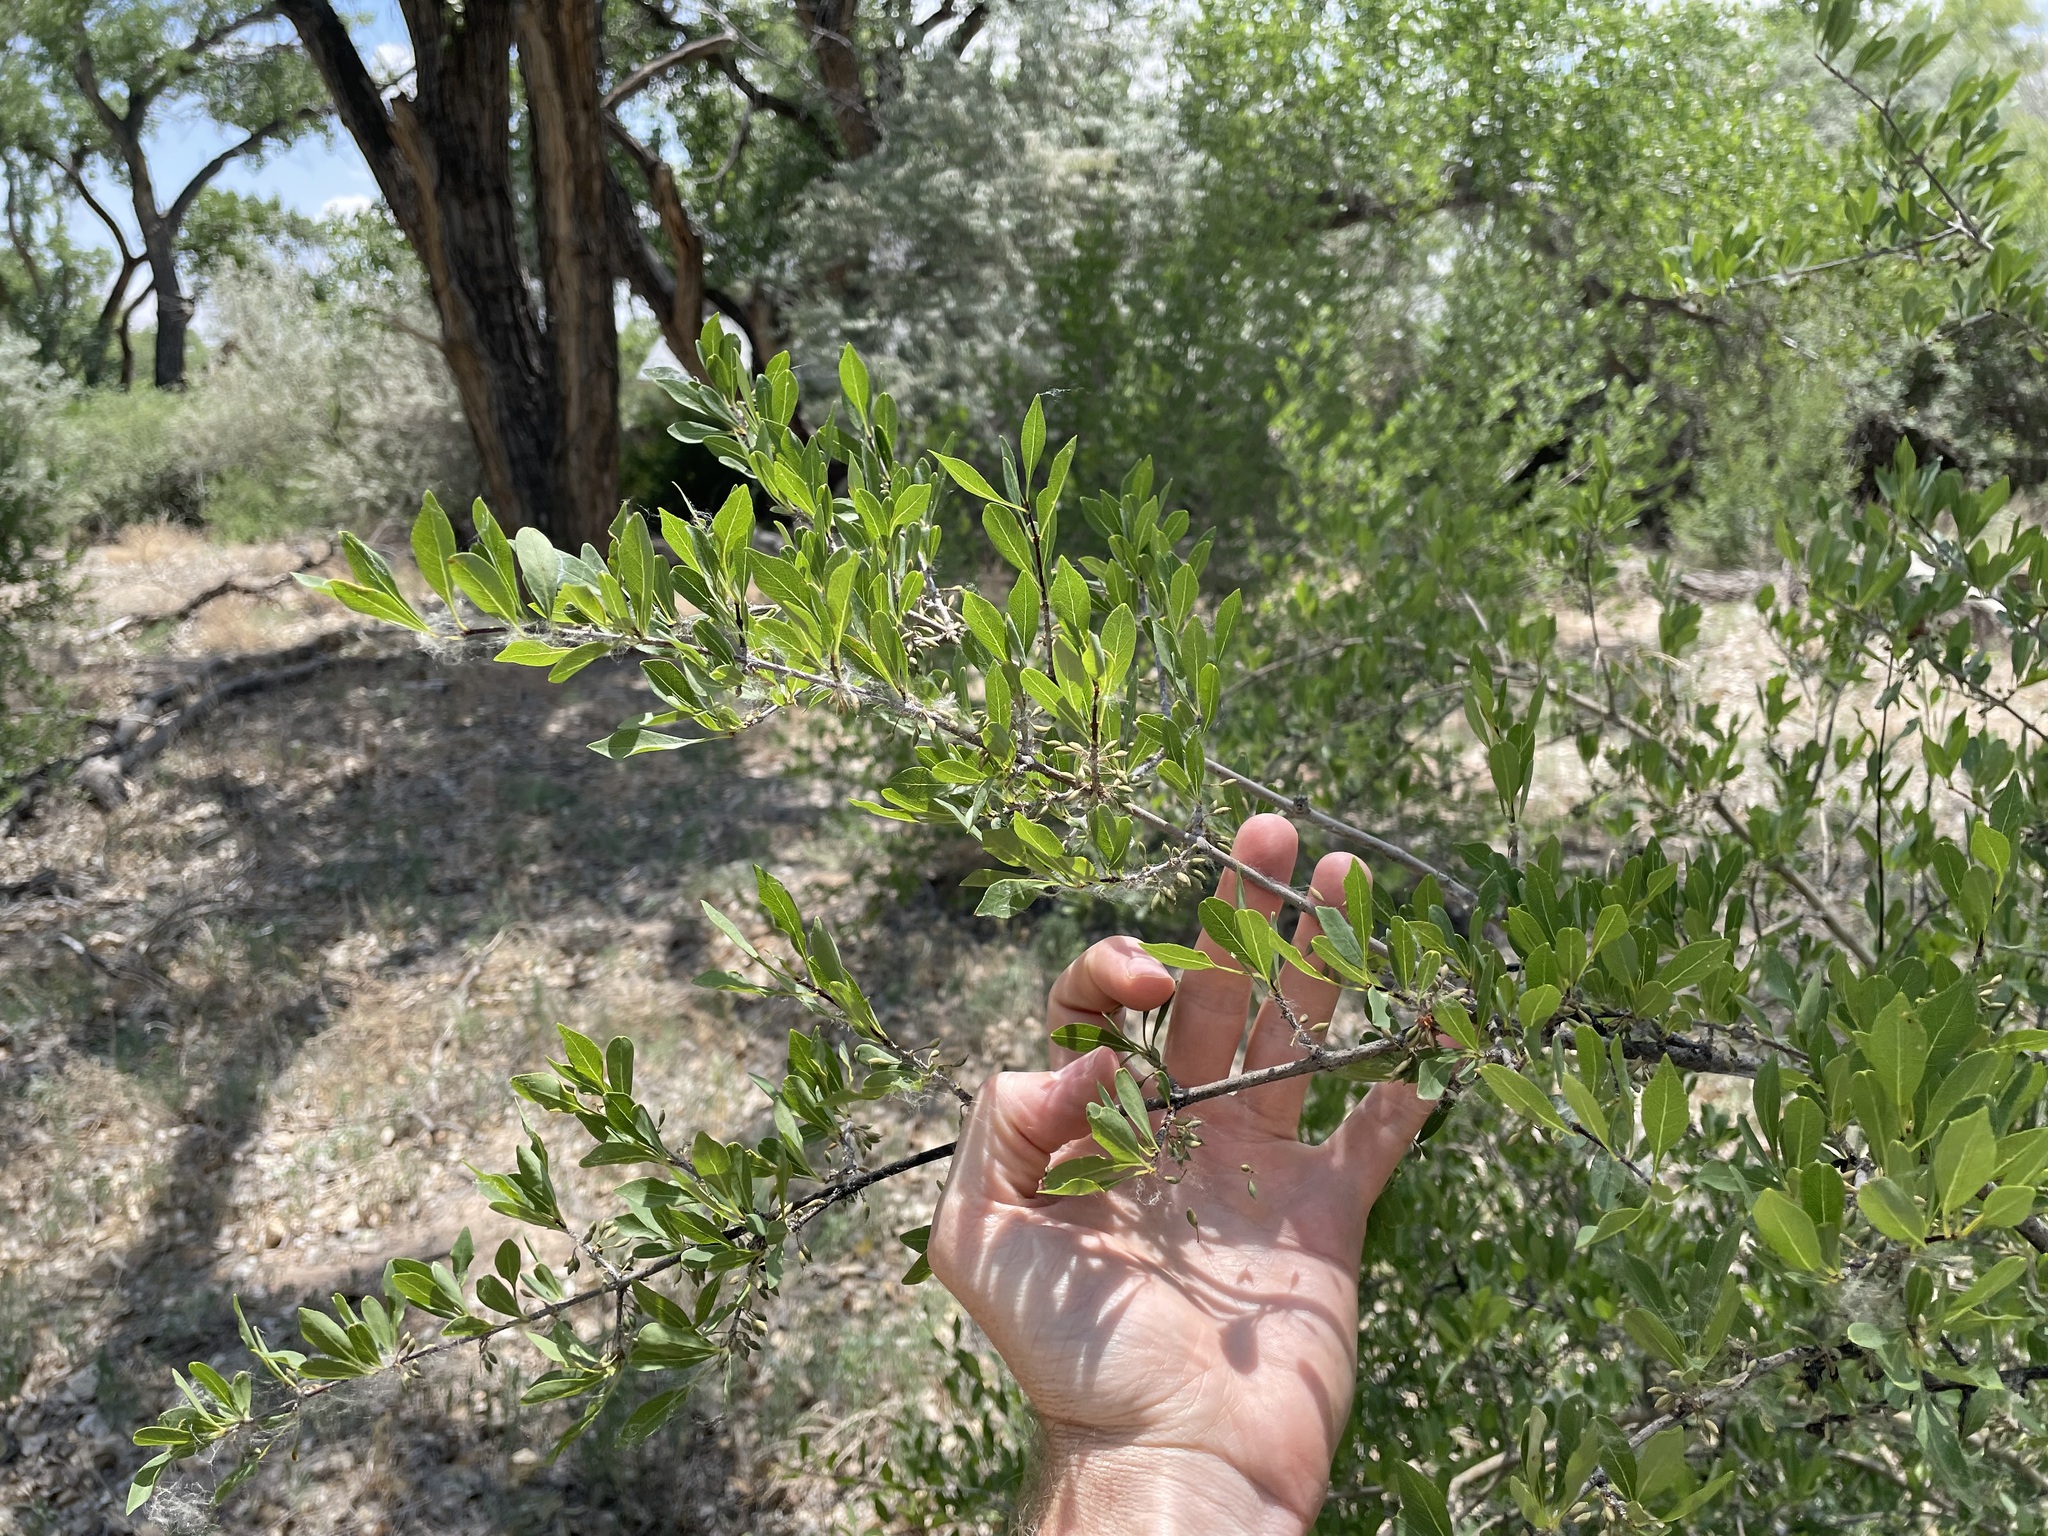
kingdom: Plantae
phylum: Tracheophyta
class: Magnoliopsida
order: Lamiales
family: Oleaceae
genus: Forestiera
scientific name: Forestiera pubescens
